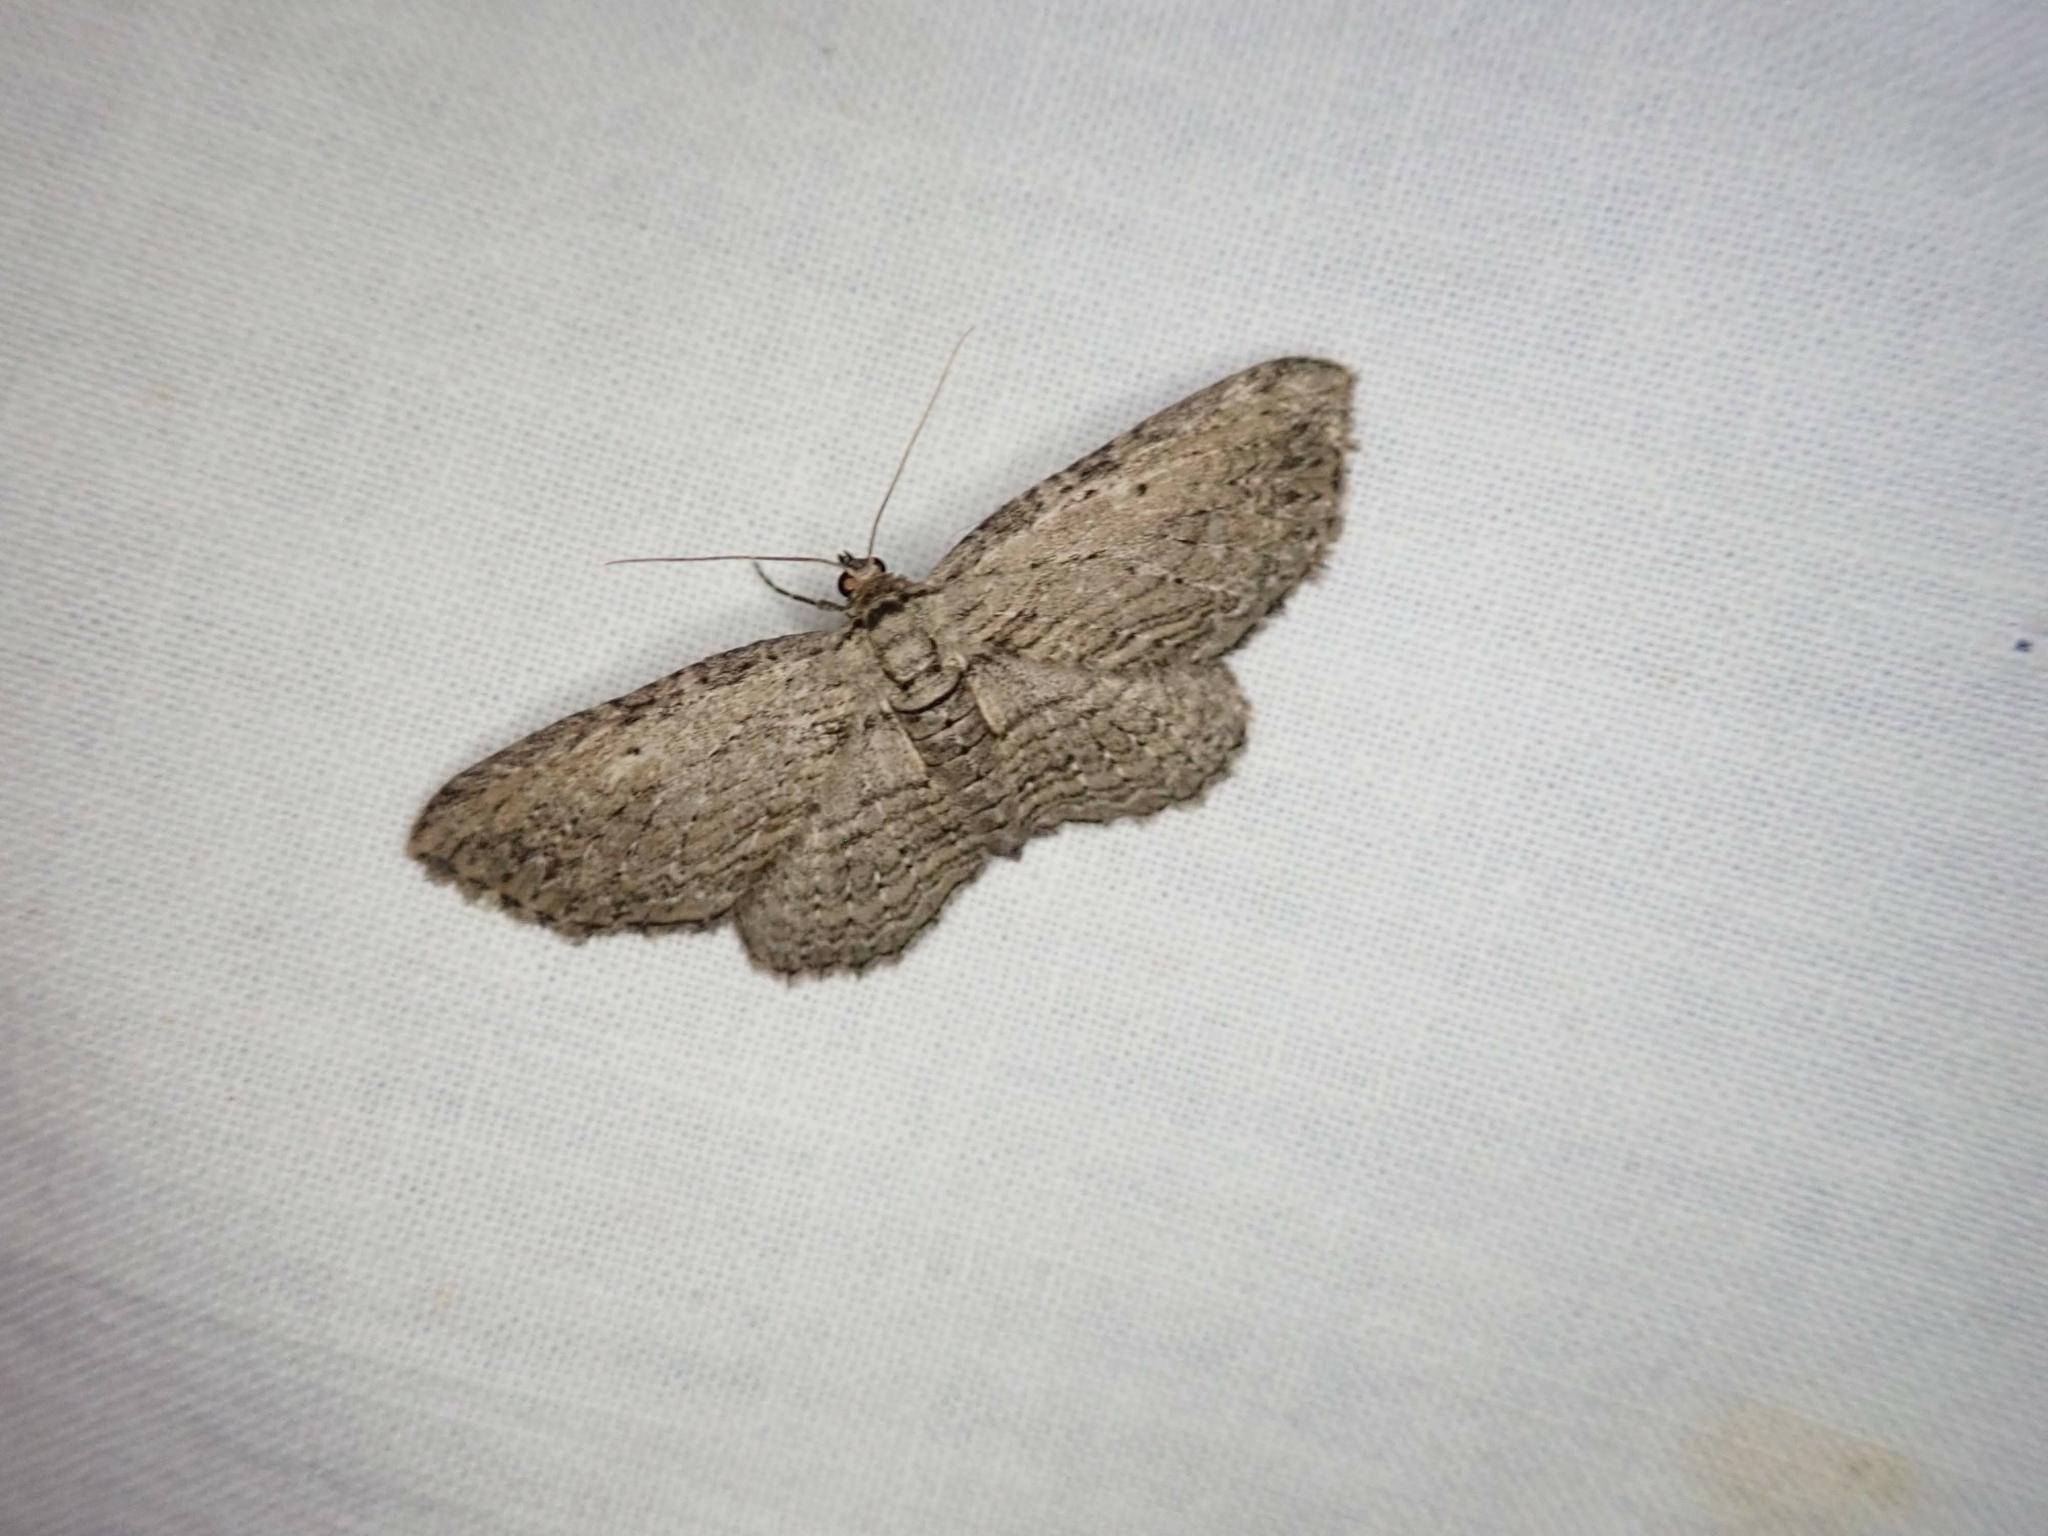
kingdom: Animalia
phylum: Arthropoda
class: Insecta
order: Lepidoptera
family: Geometridae
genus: Horisme
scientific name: Horisme intestinata
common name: Brown bark carpet
